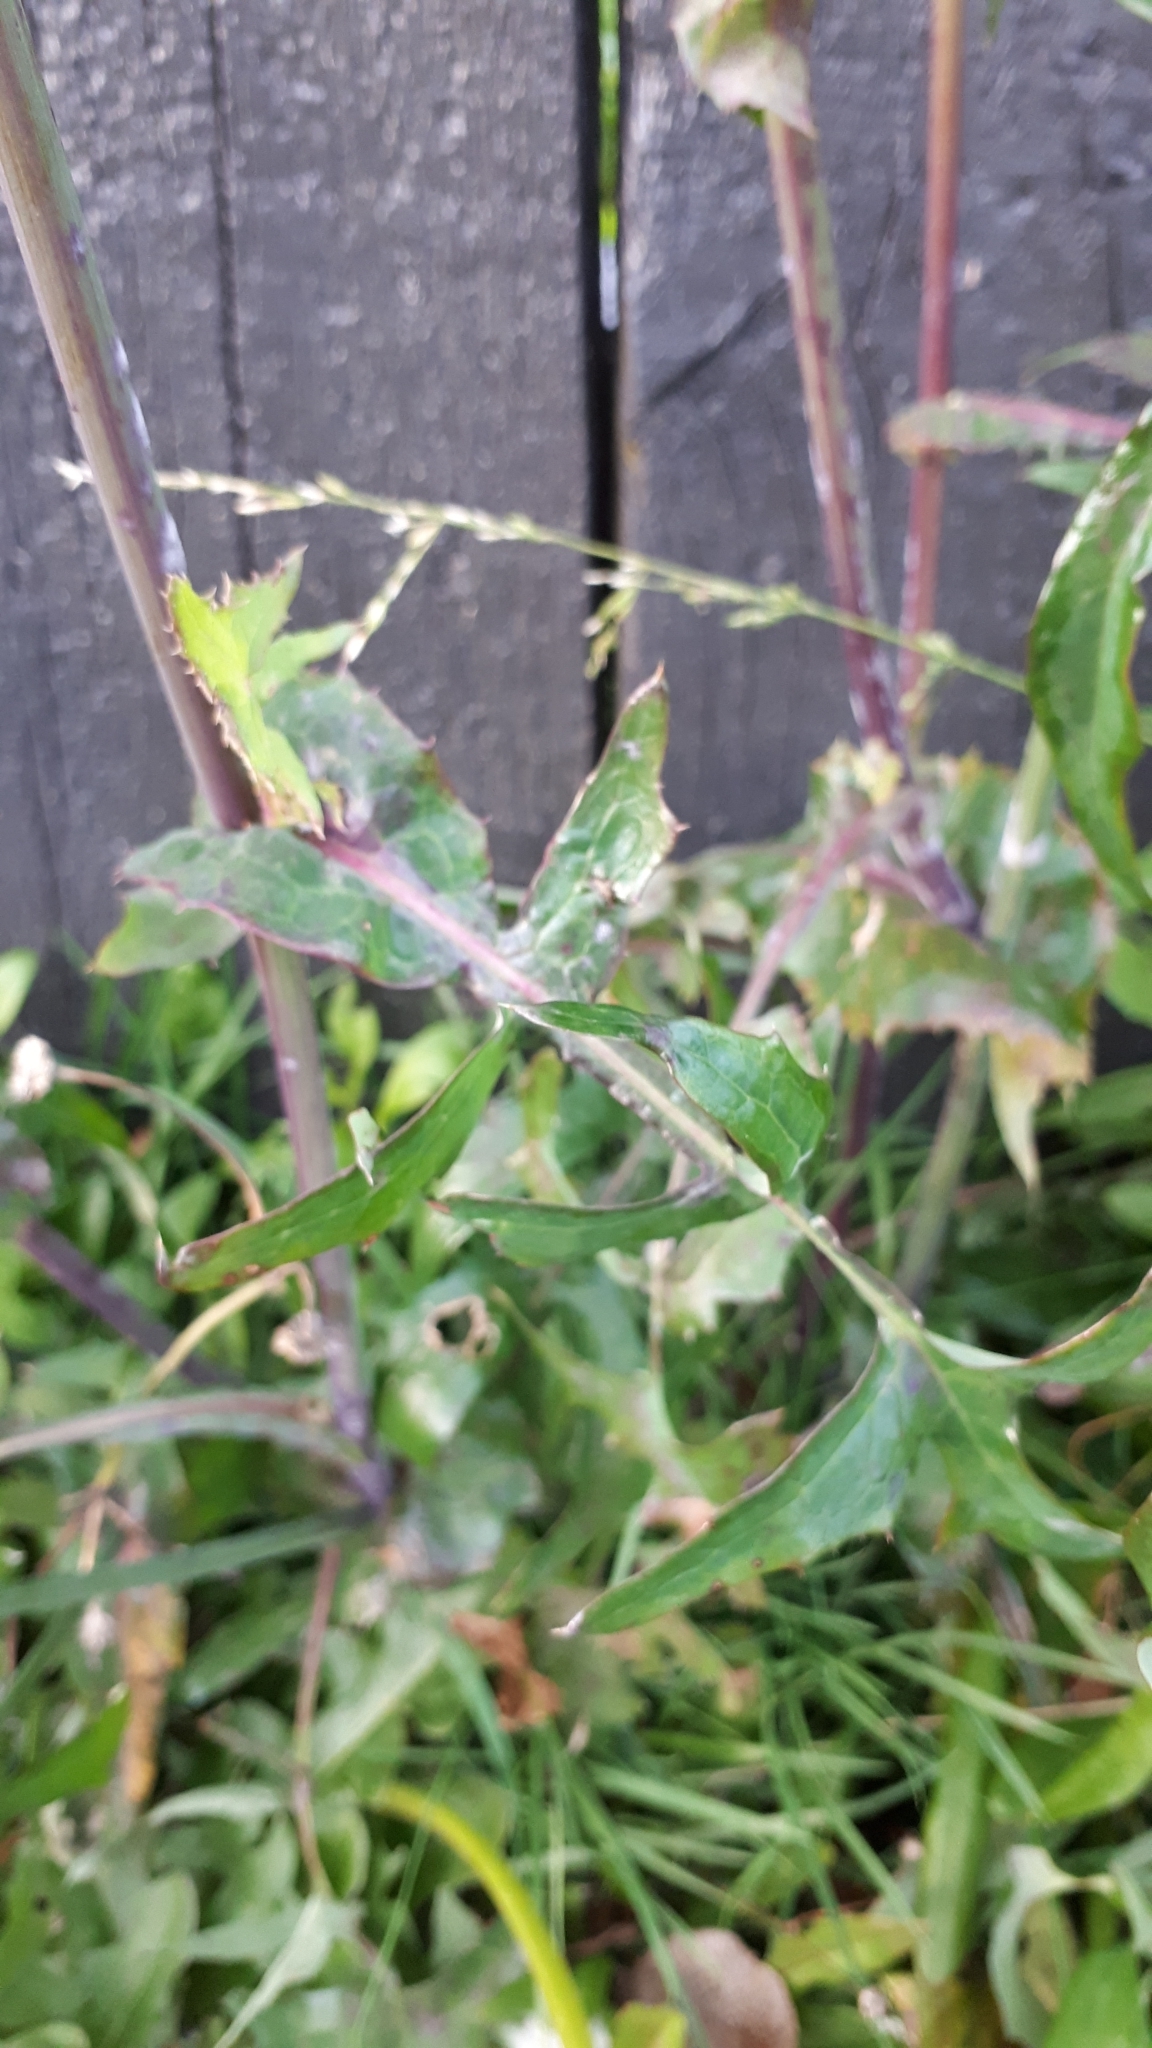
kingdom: Plantae
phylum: Tracheophyta
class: Magnoliopsida
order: Asterales
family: Asteraceae
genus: Sonchus
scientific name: Sonchus oleraceus
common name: Common sowthistle
